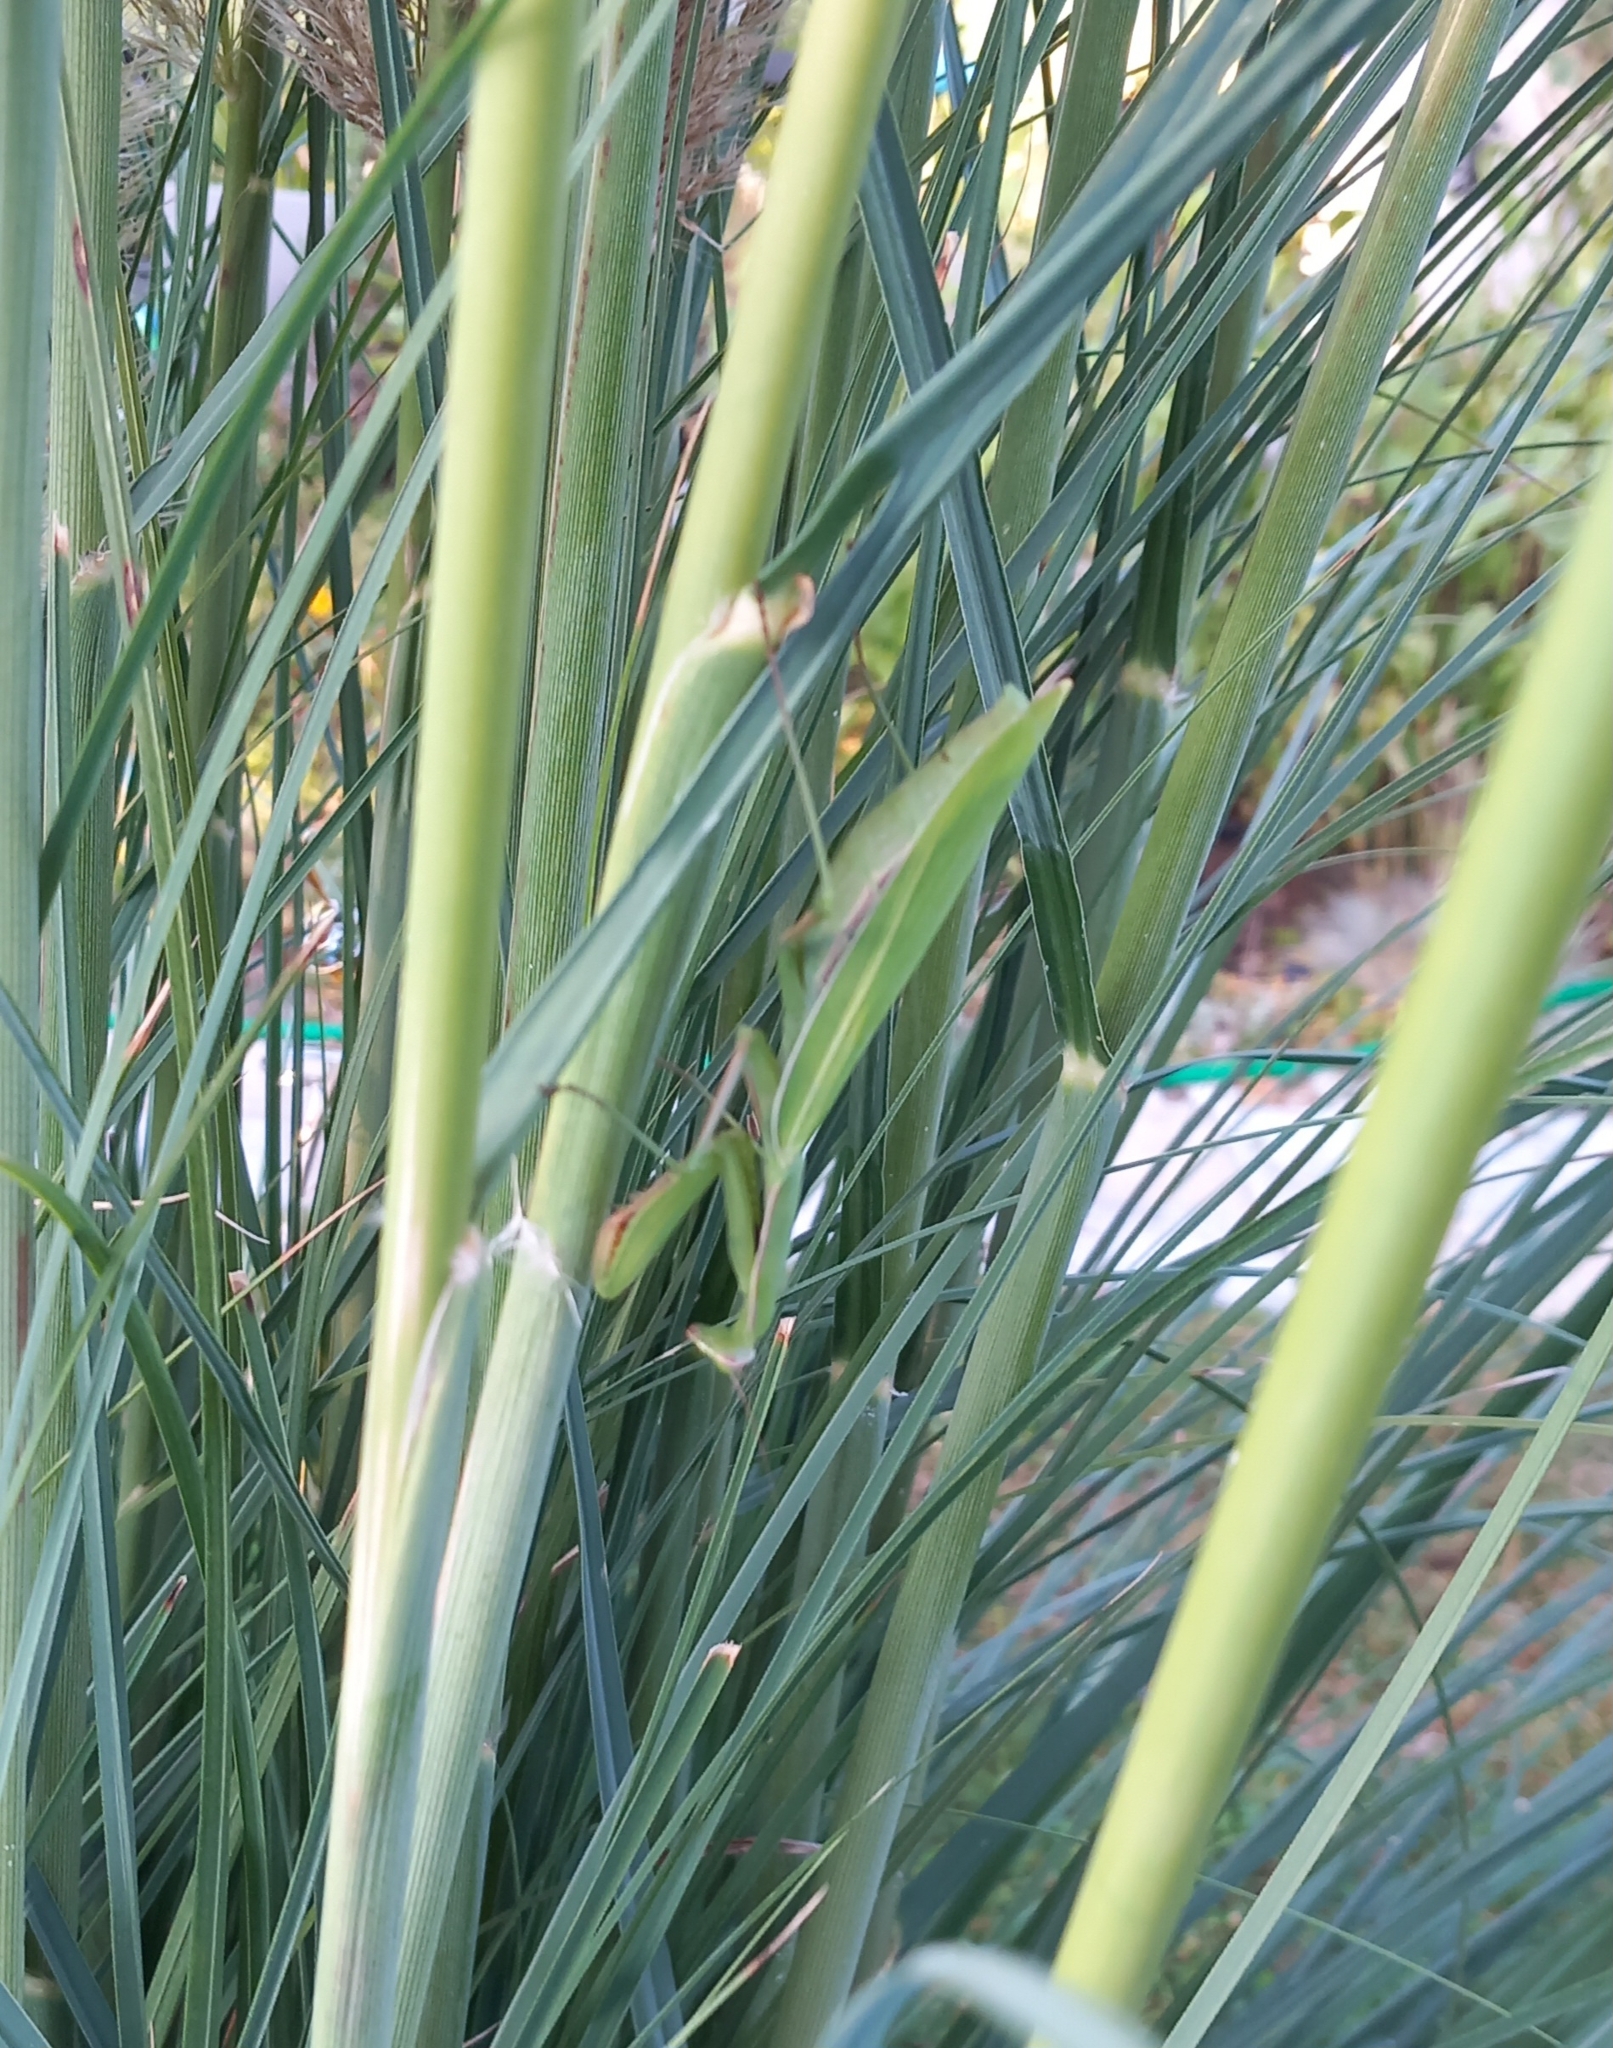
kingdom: Animalia
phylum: Arthropoda
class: Insecta
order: Mantodea
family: Mantidae
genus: Mantis
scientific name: Mantis religiosa
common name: Praying mantis
